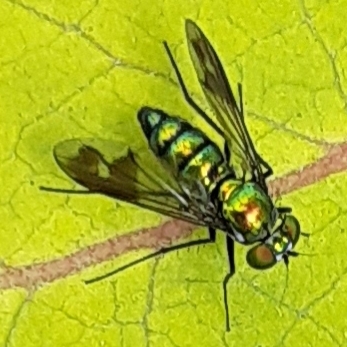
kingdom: Animalia
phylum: Arthropoda
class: Insecta
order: Diptera
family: Dolichopodidae
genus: Condylostylus
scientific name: Condylostylus patibulatus
